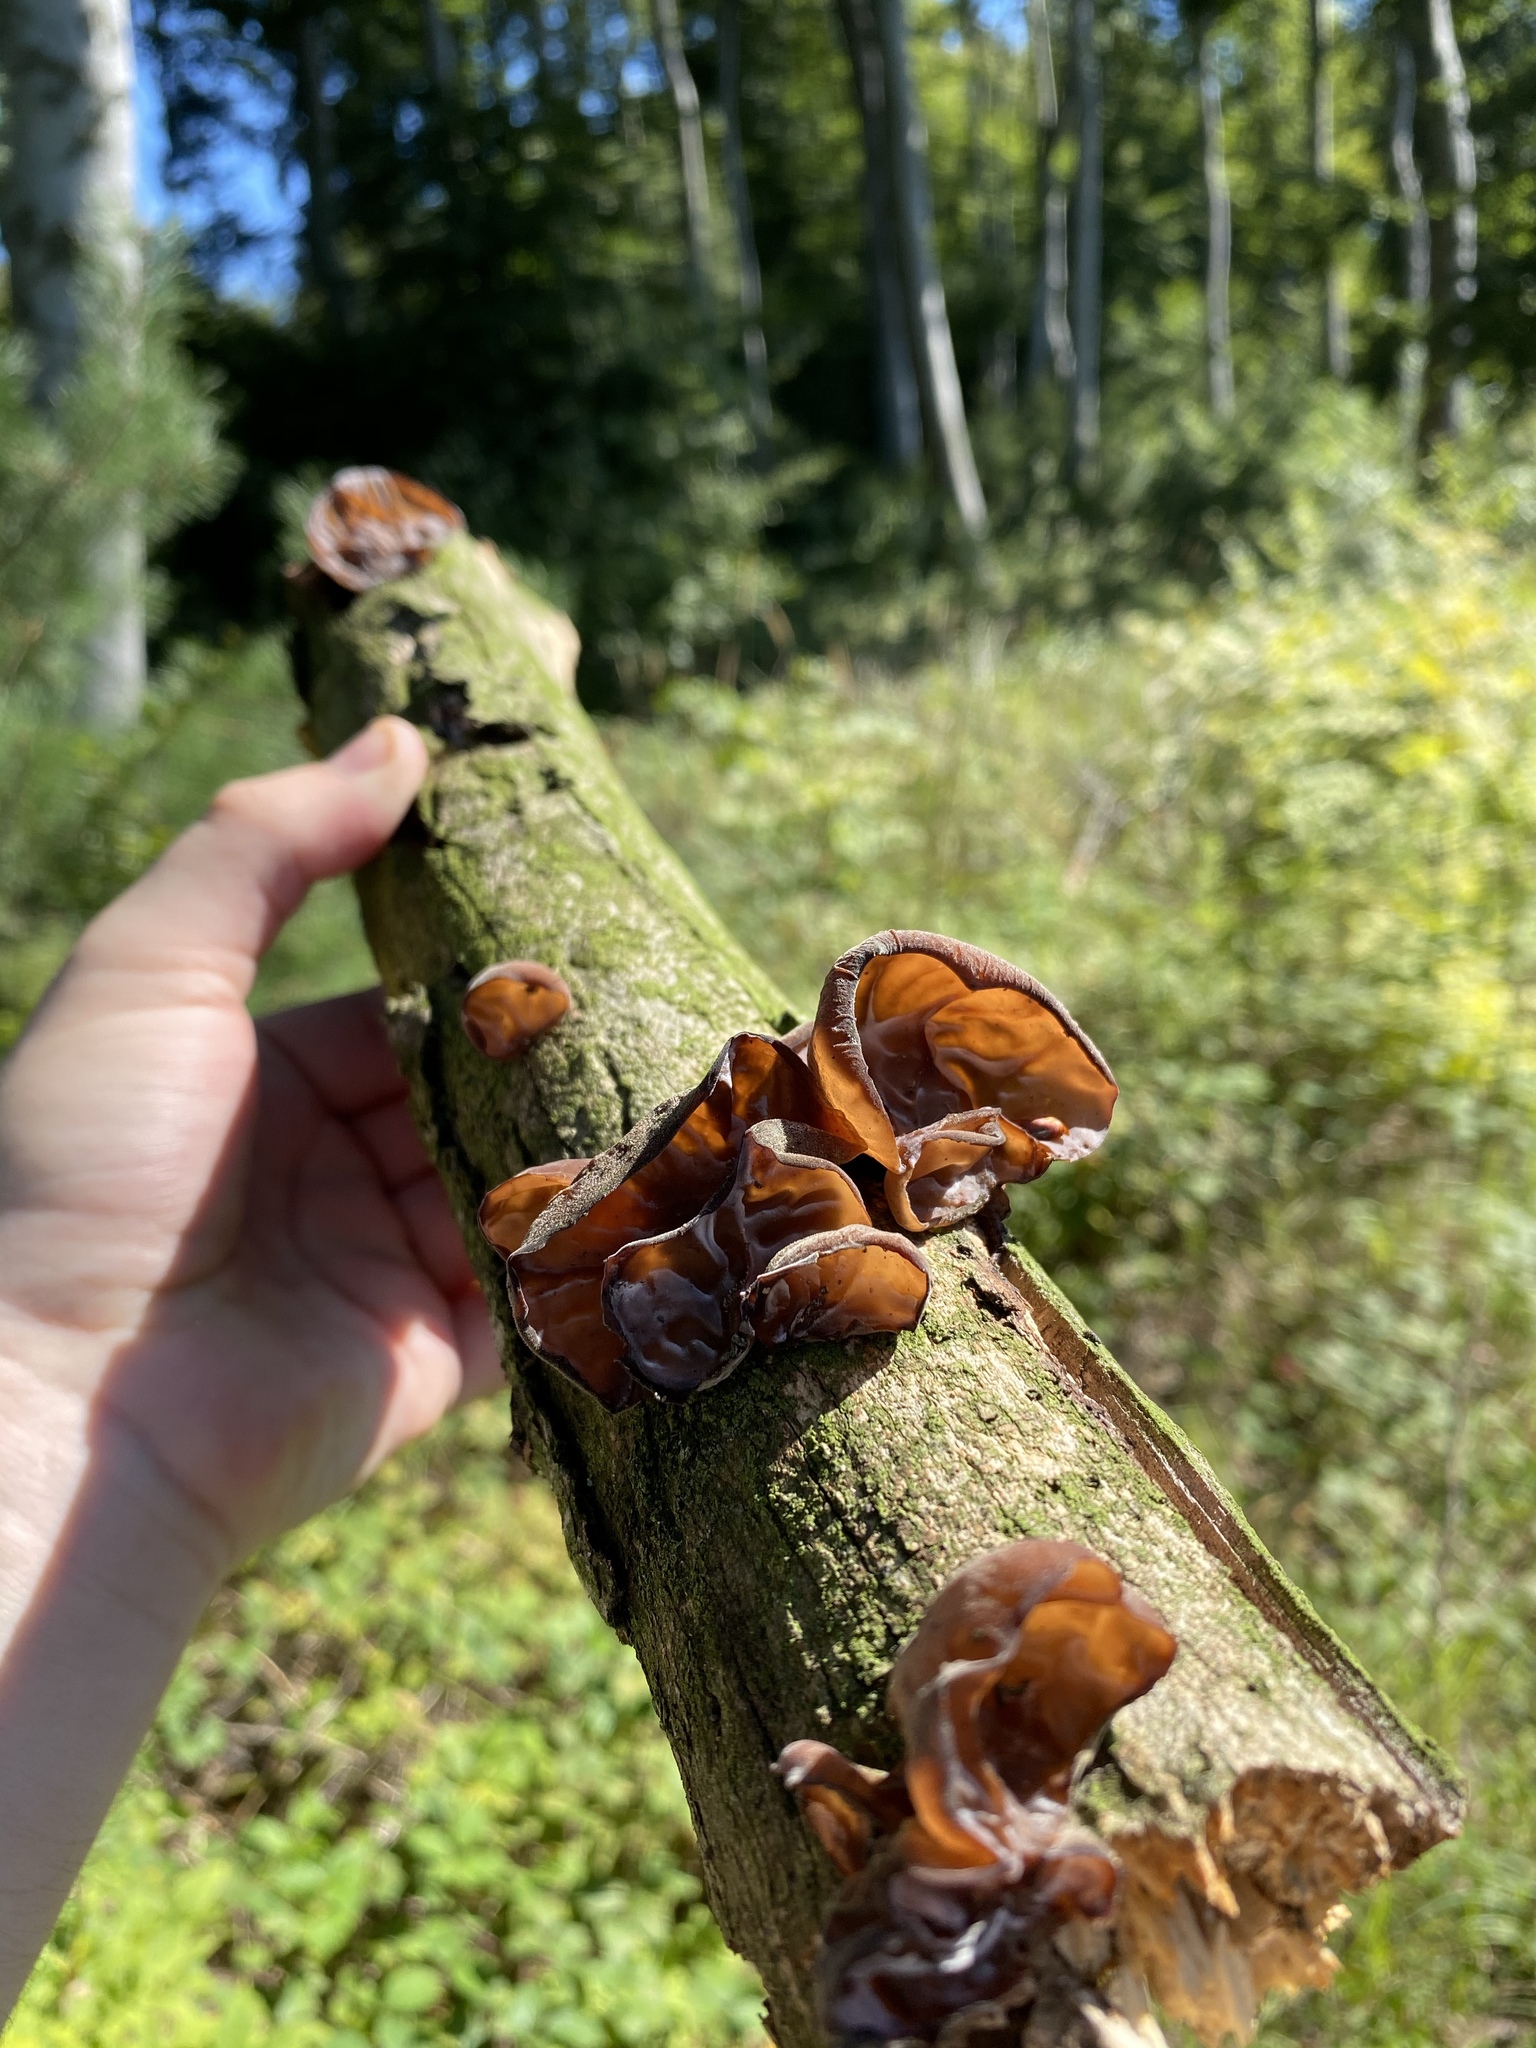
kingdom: Fungi
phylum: Basidiomycota
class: Agaricomycetes
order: Auriculariales
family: Auriculariaceae
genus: Auricularia
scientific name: Auricularia auricula-judae
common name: Jelly ear
